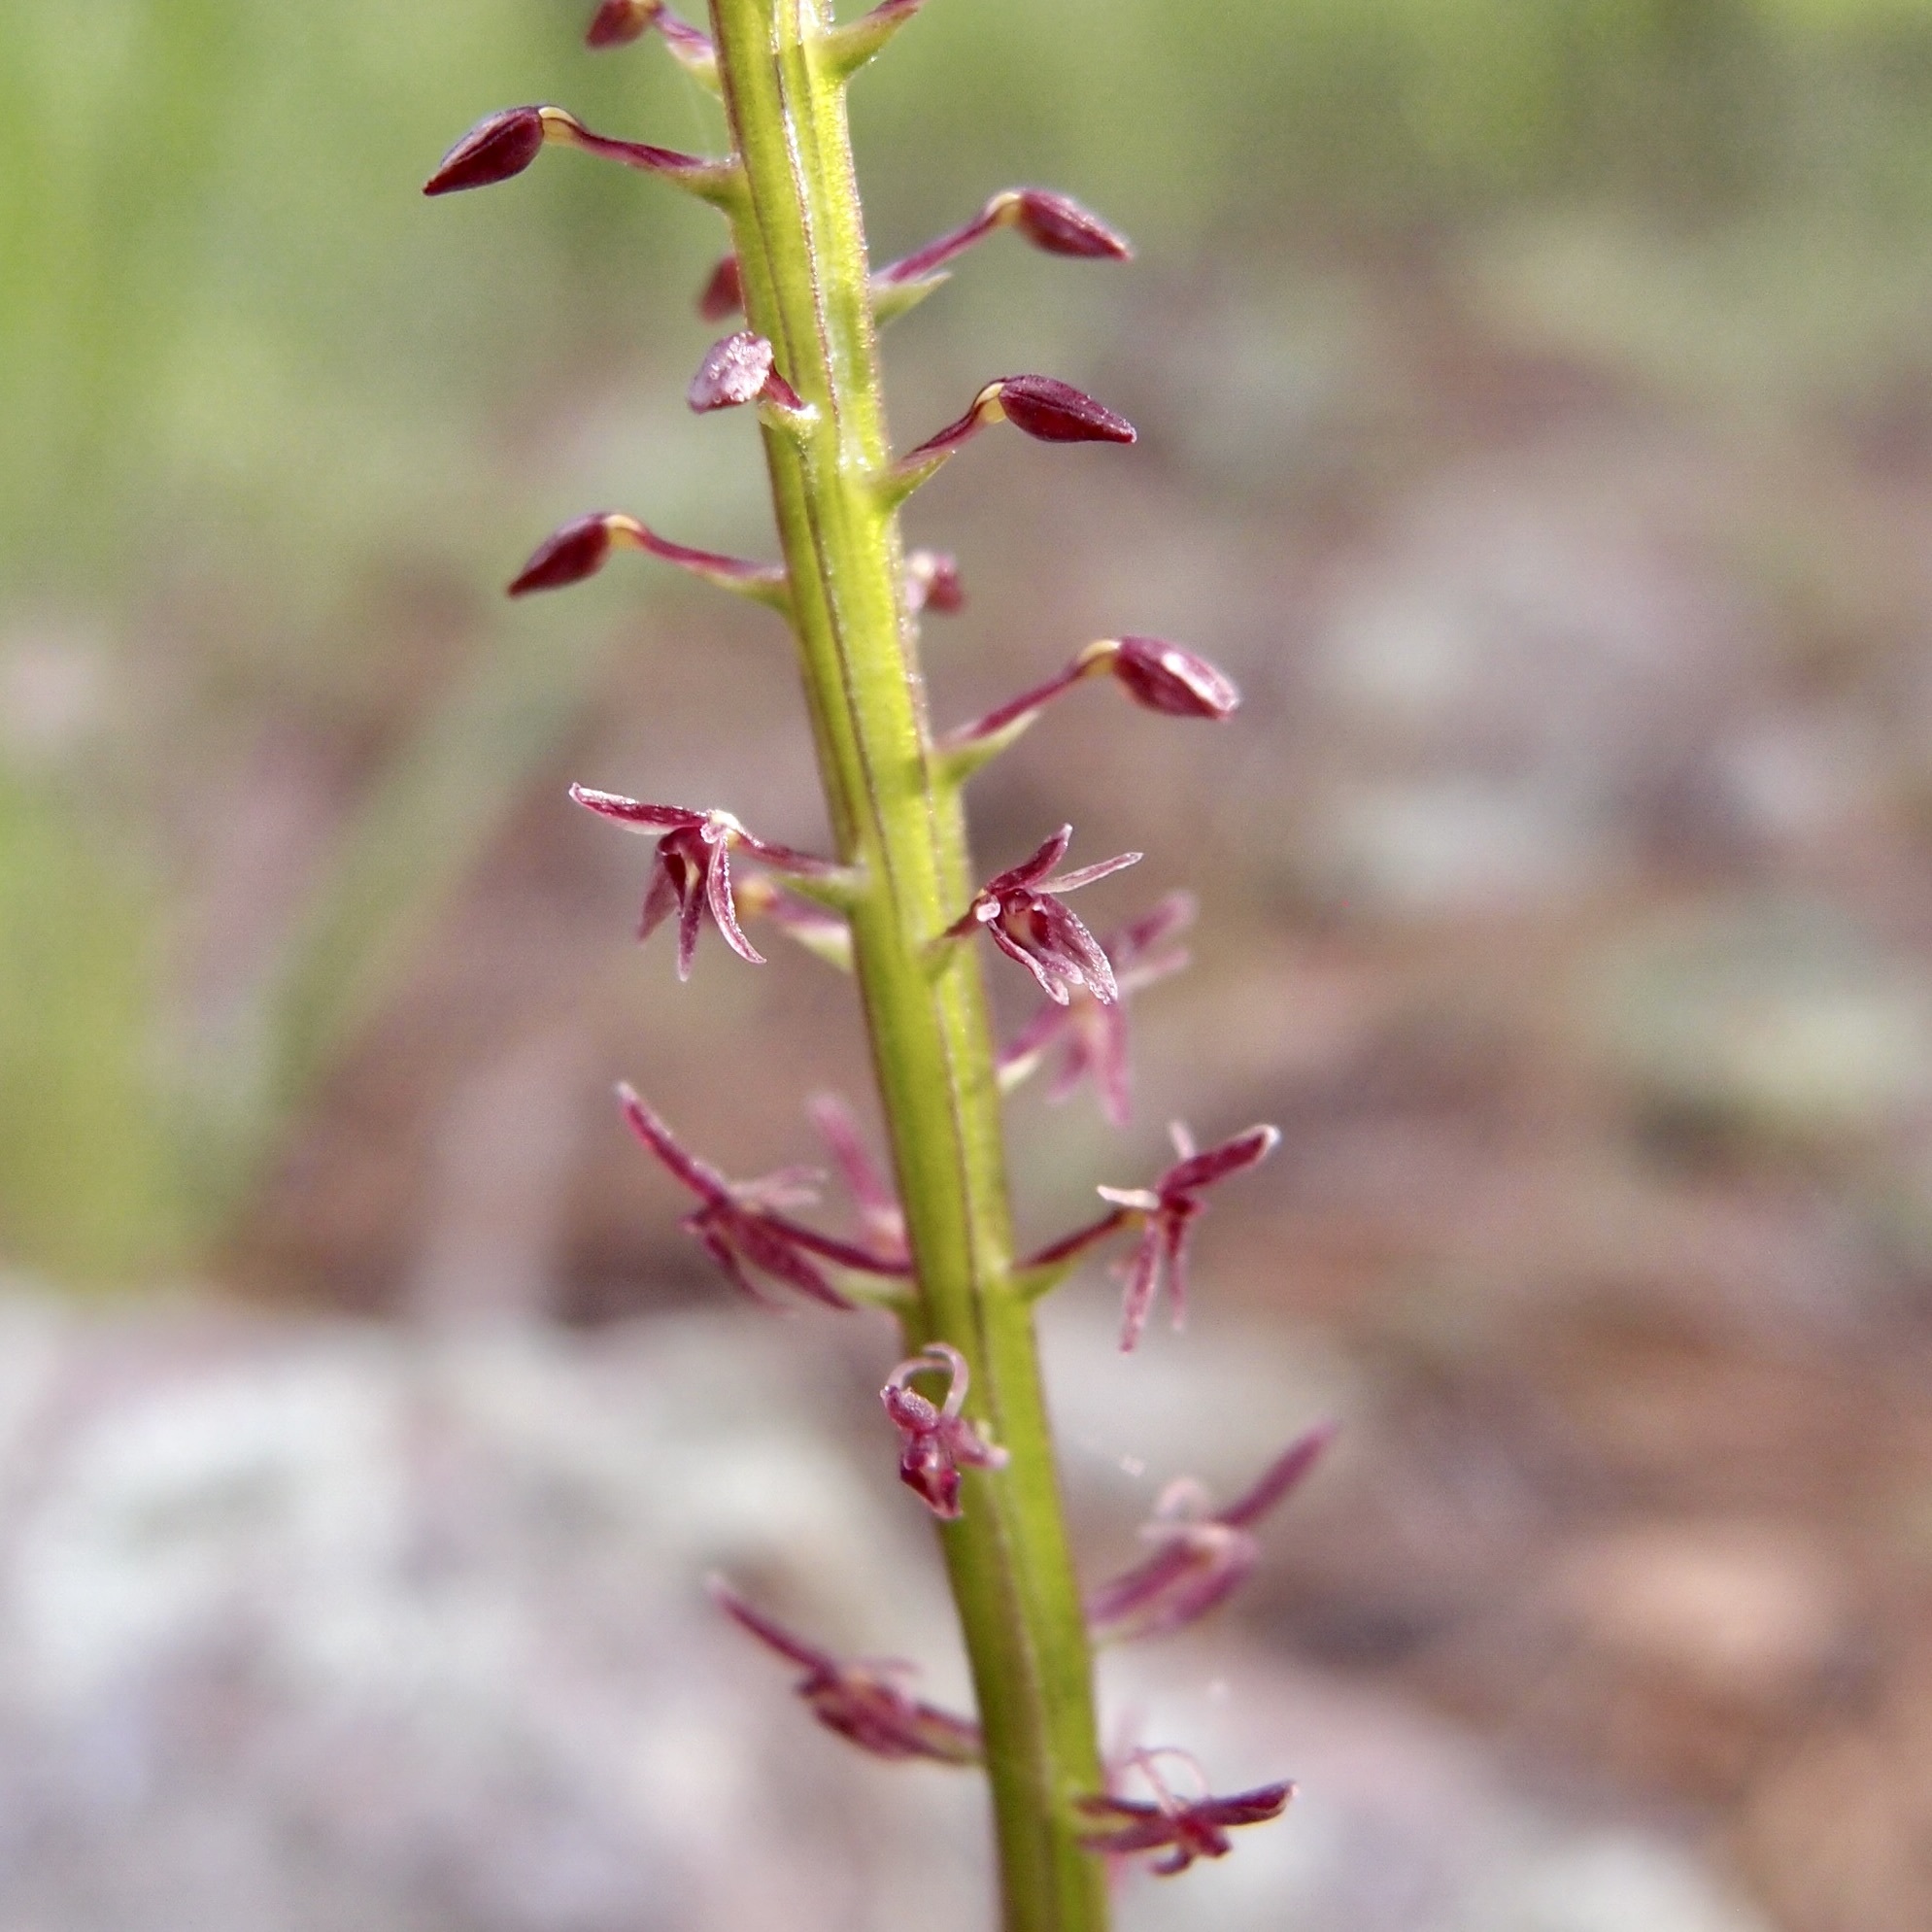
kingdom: Plantae
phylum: Tracheophyta
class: Liliopsida
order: Asparagales
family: Orchidaceae
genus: Tamayorkis
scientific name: Tamayorkis porphyrea
